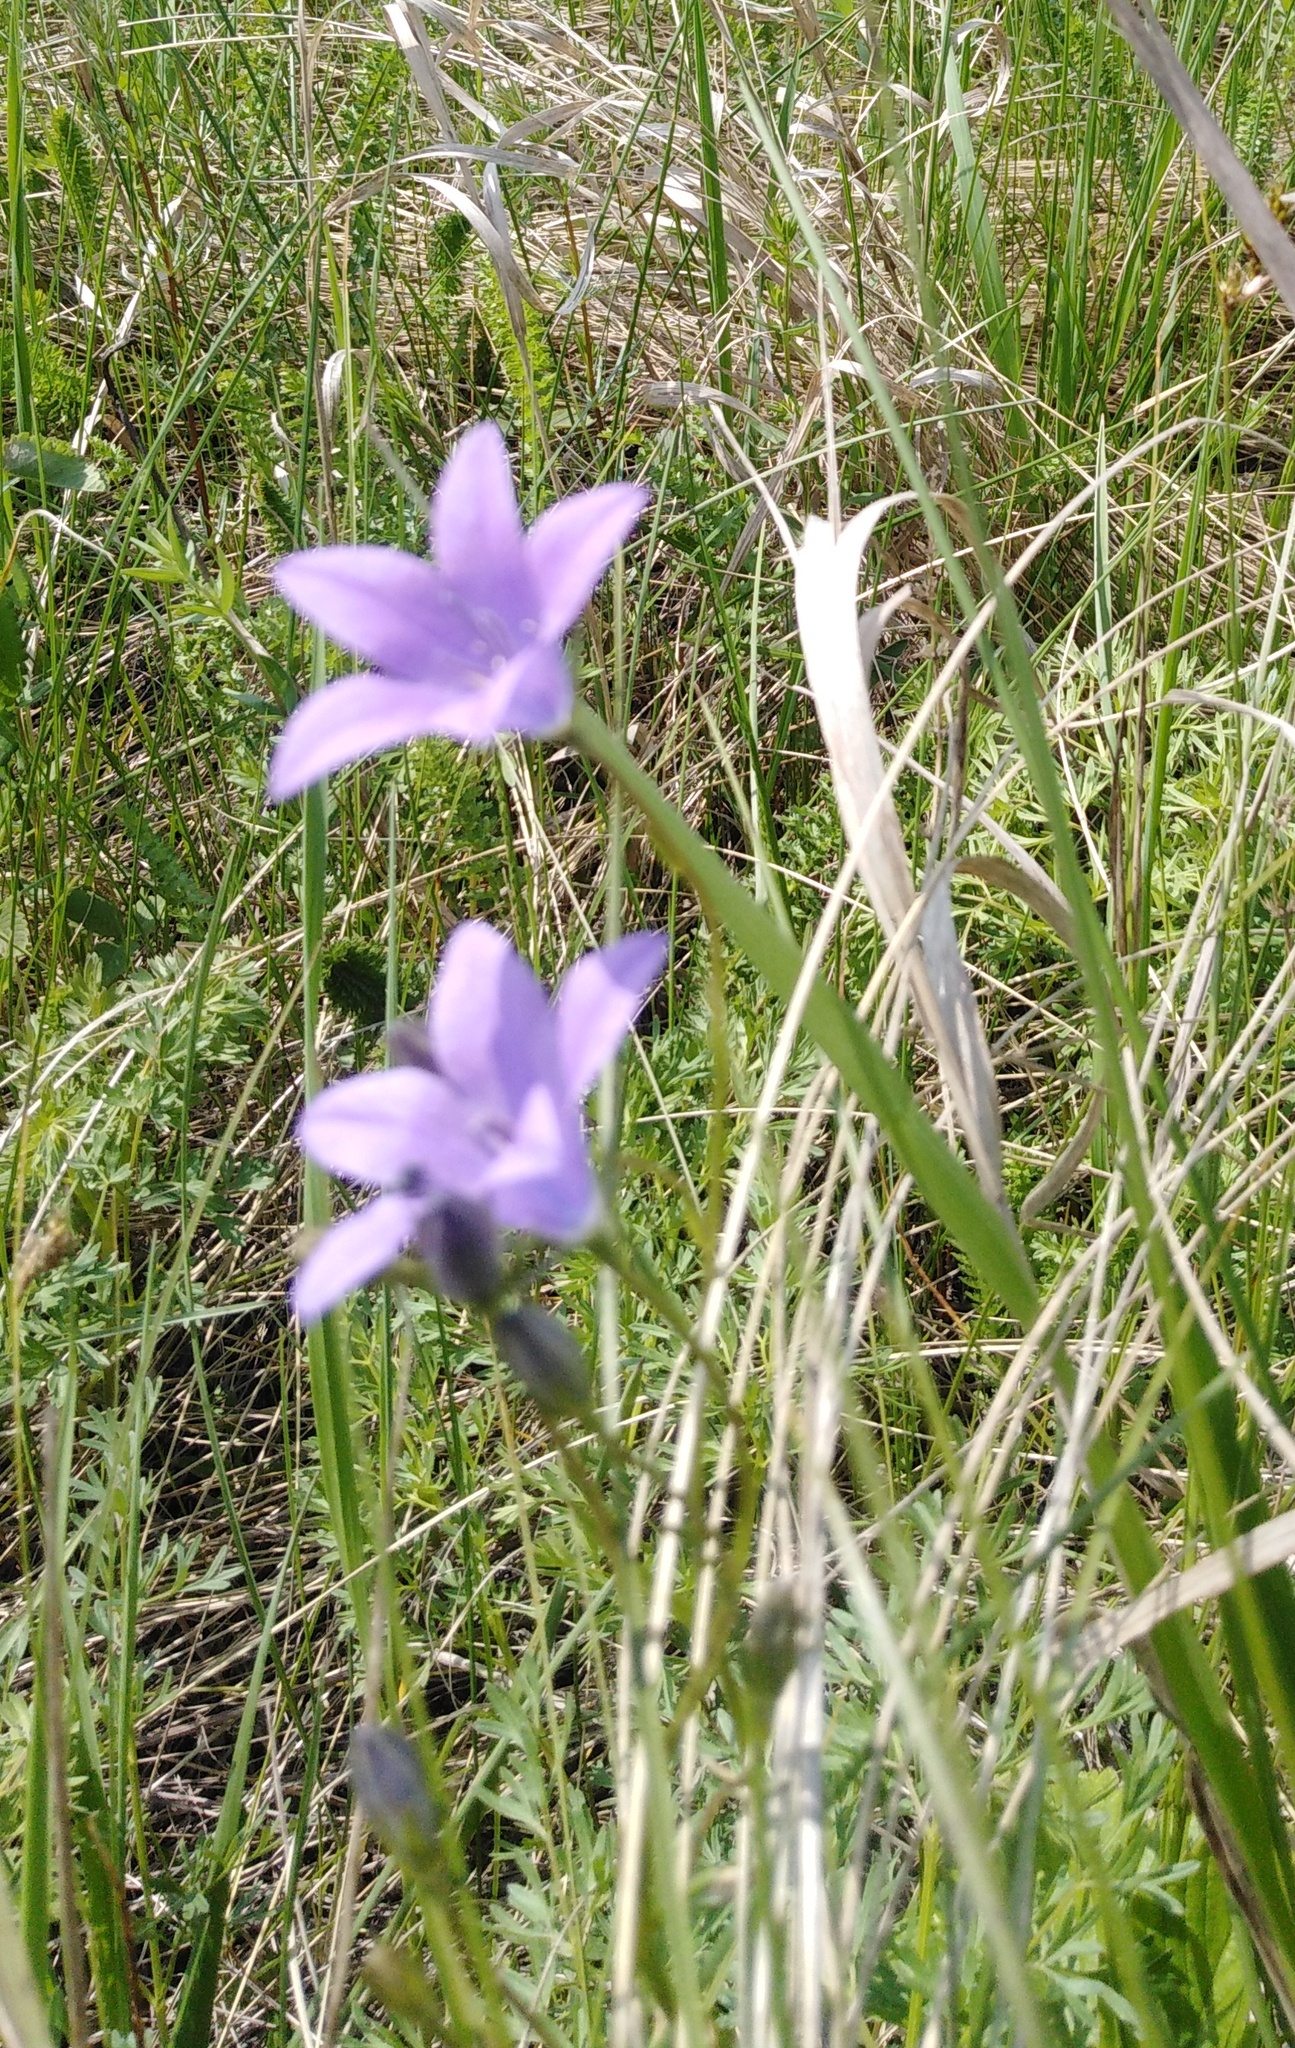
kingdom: Plantae
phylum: Tracheophyta
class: Magnoliopsida
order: Asterales
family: Campanulaceae
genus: Campanula
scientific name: Campanula stevenii
